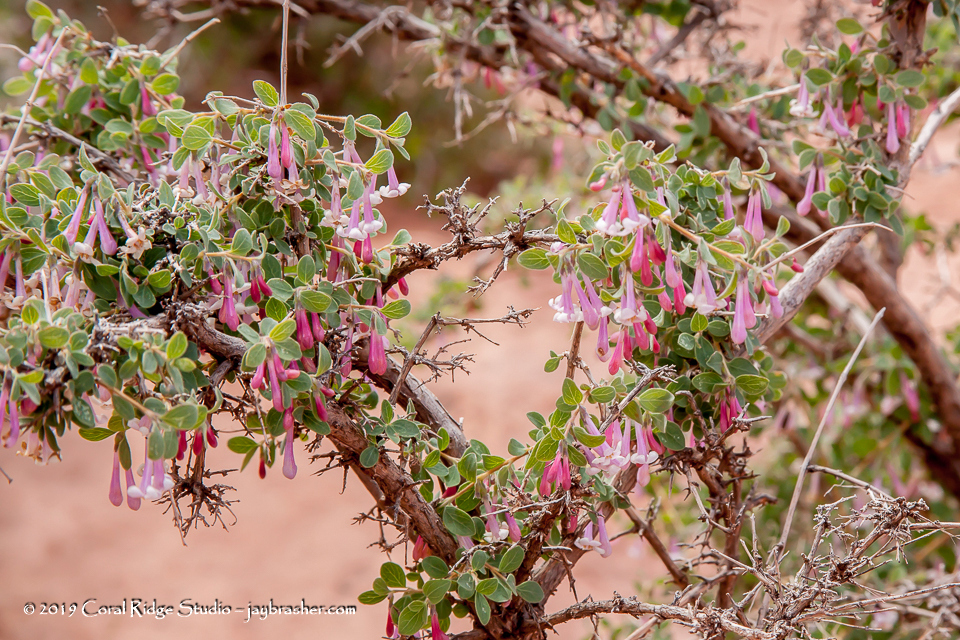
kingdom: Plantae
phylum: Tracheophyta
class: Magnoliopsida
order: Dipsacales
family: Caprifoliaceae
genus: Symphoricarpos
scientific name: Symphoricarpos longiflorus
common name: Fragrant snowberry
